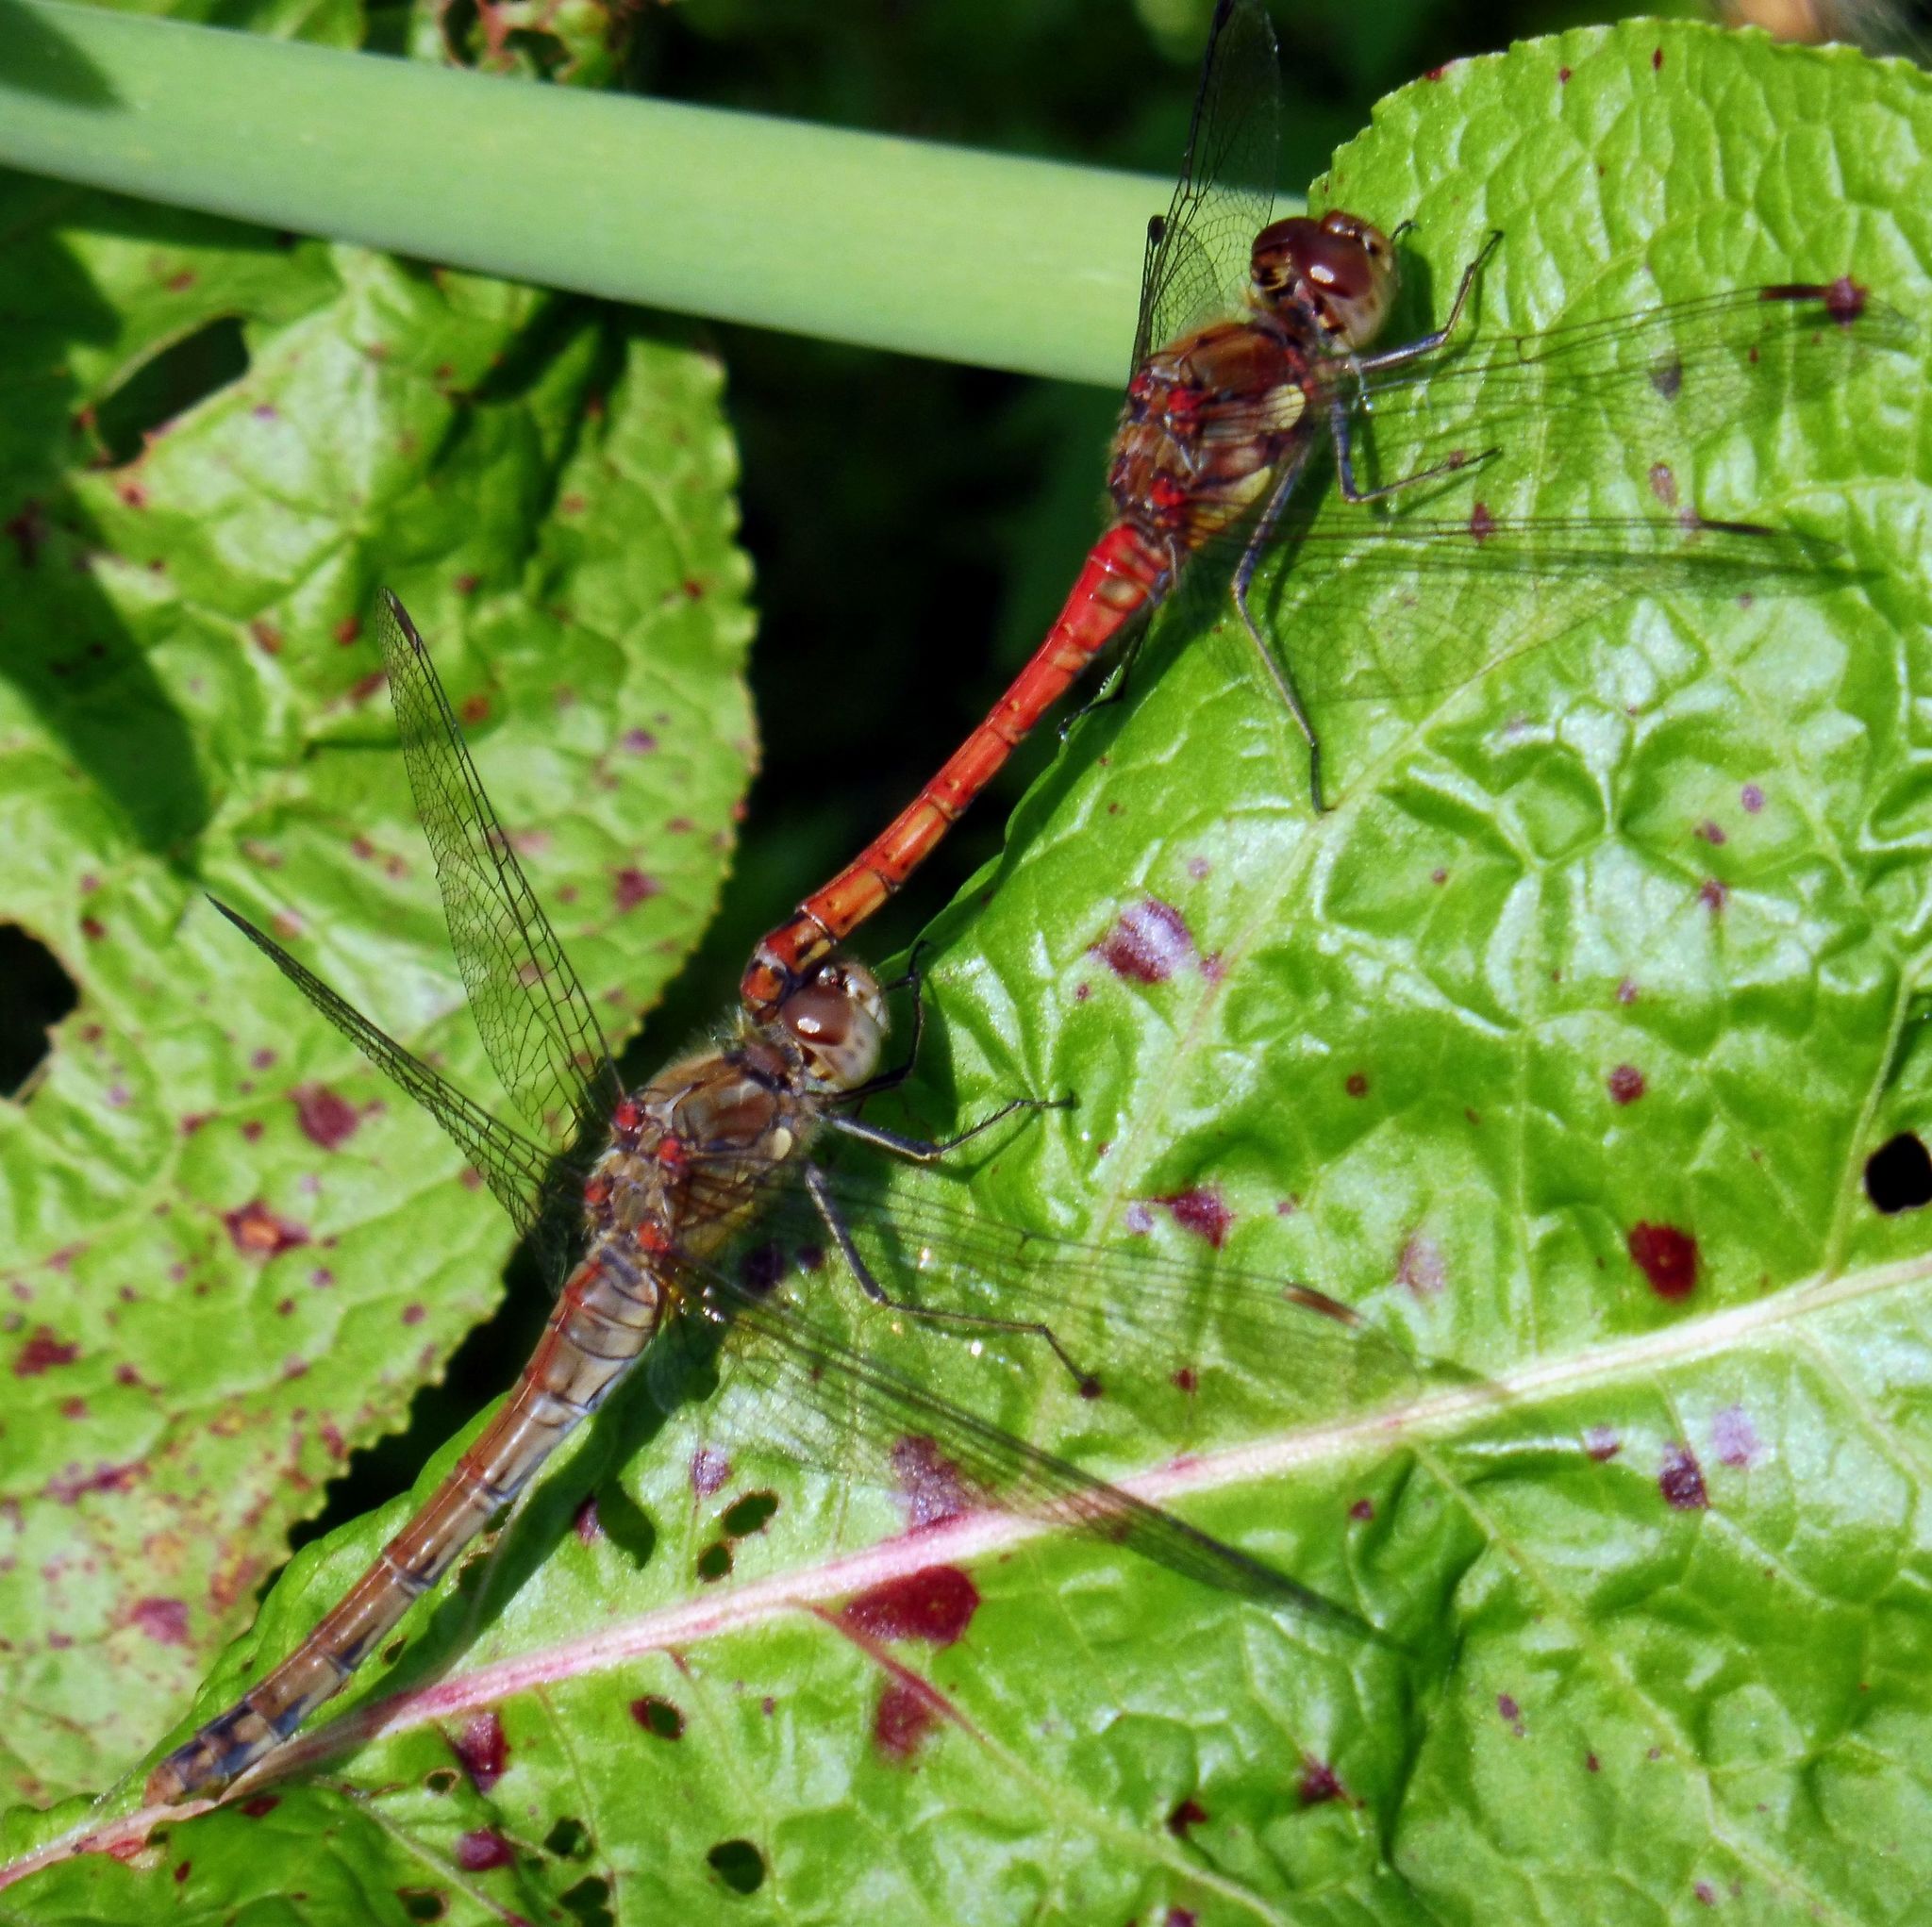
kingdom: Animalia
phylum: Arthropoda
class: Insecta
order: Odonata
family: Libellulidae
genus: Sympetrum
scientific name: Sympetrum striolatum
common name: Common darter
